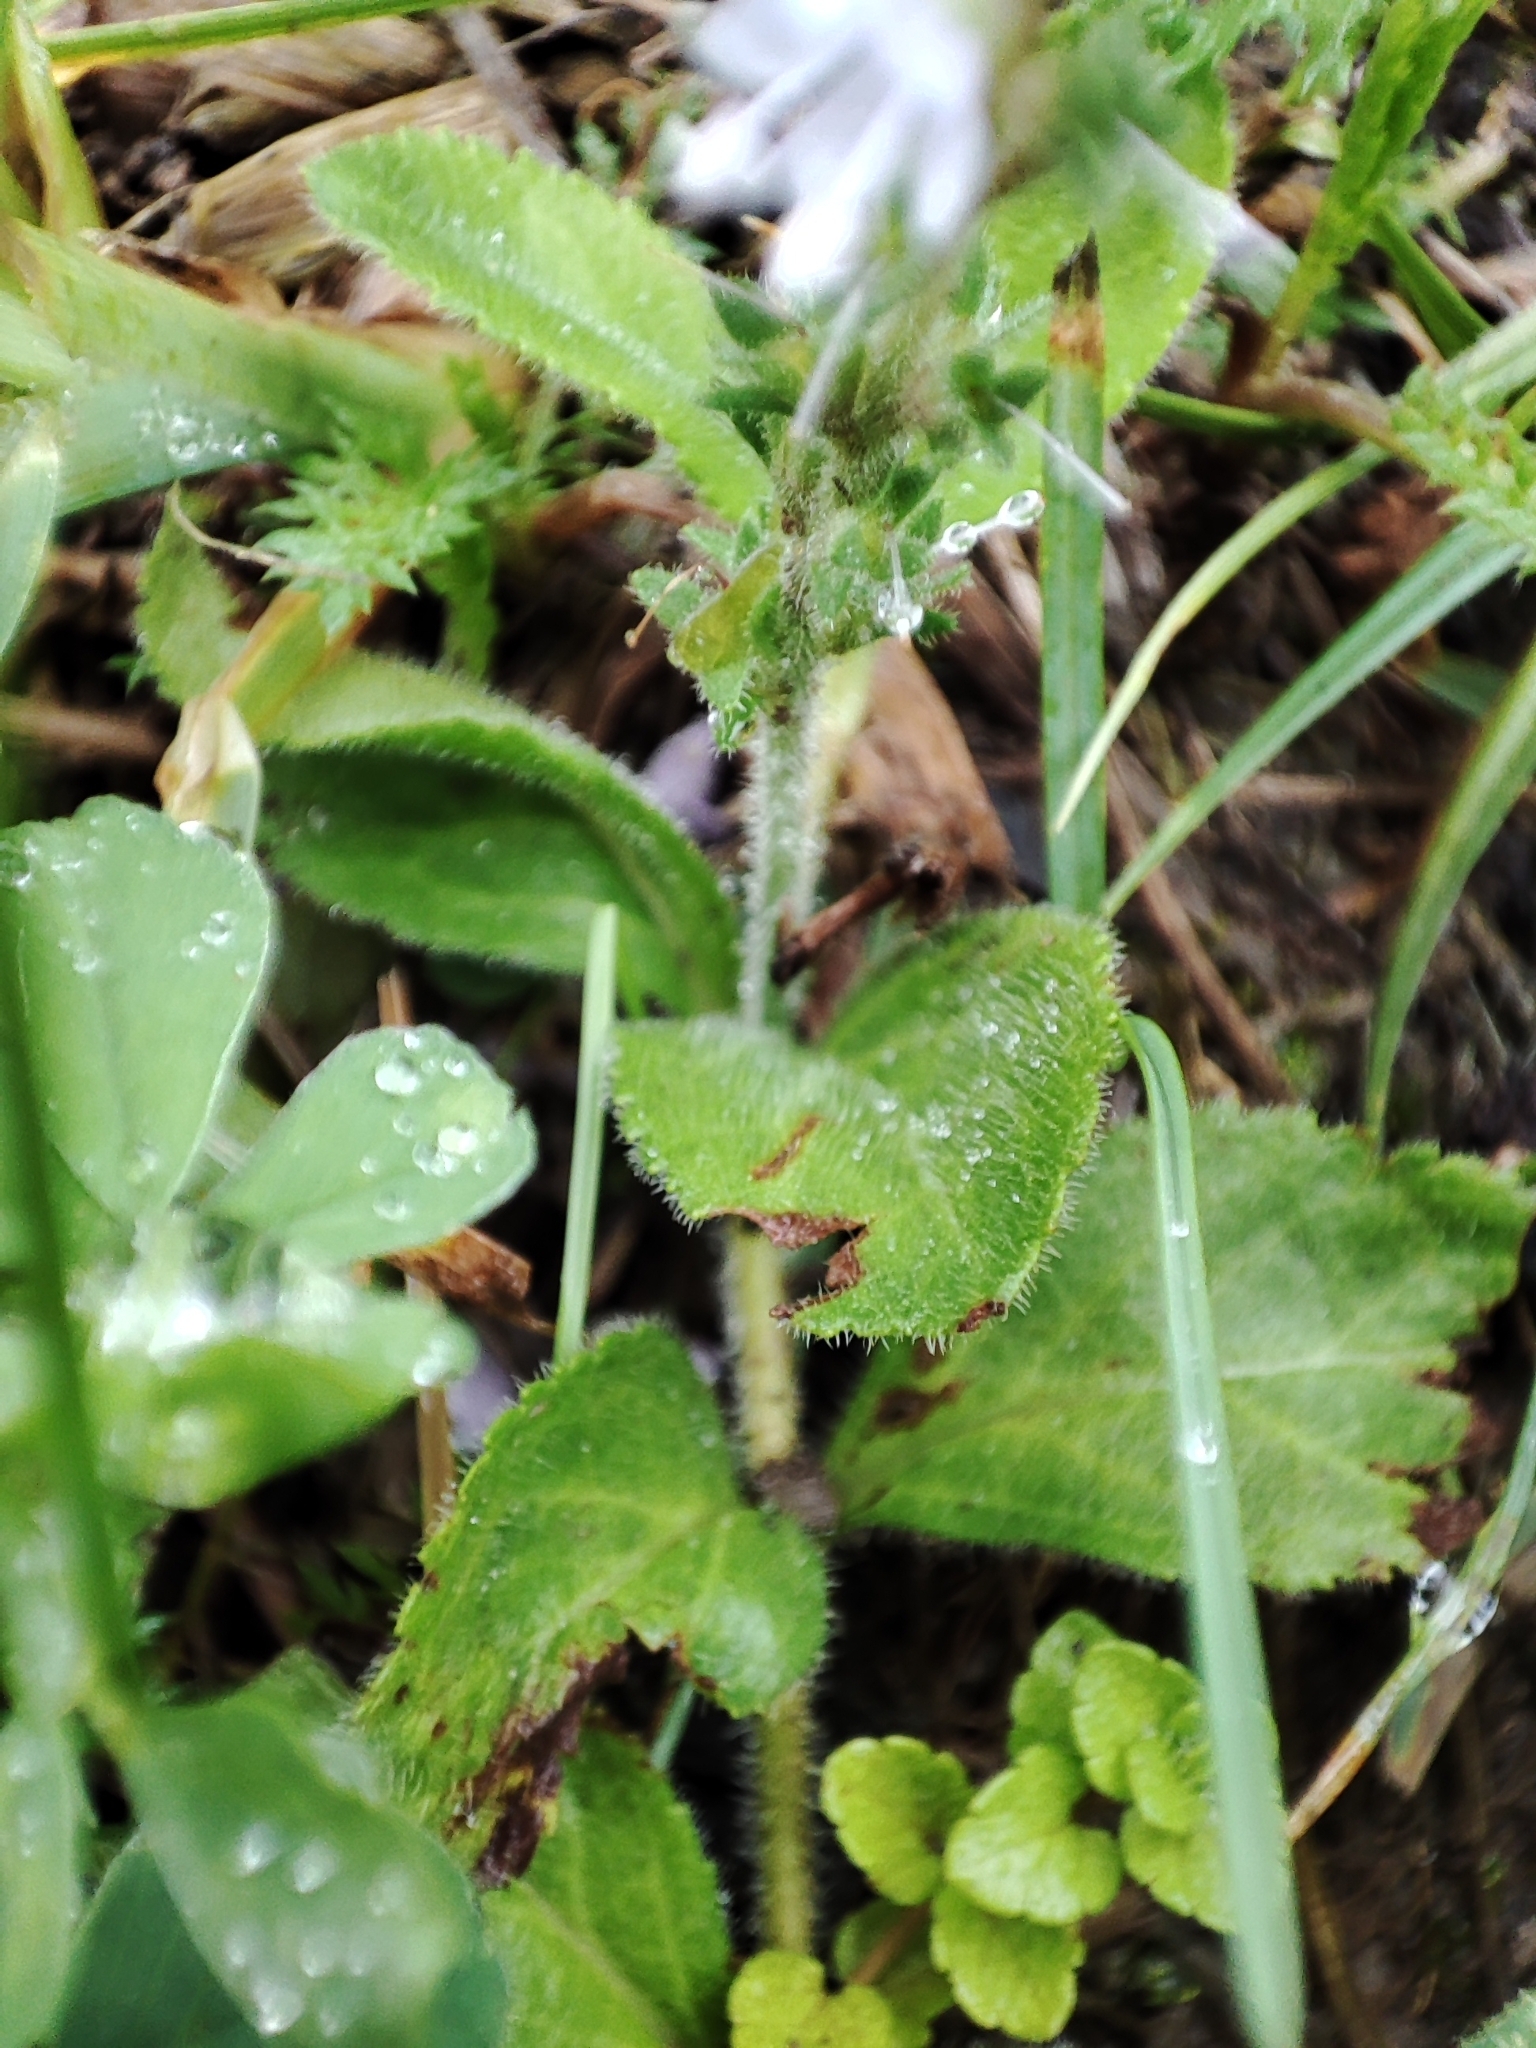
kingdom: Plantae
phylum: Tracheophyta
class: Magnoliopsida
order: Lamiales
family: Plantaginaceae
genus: Veronica
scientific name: Veronica officinalis
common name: Common speedwell
